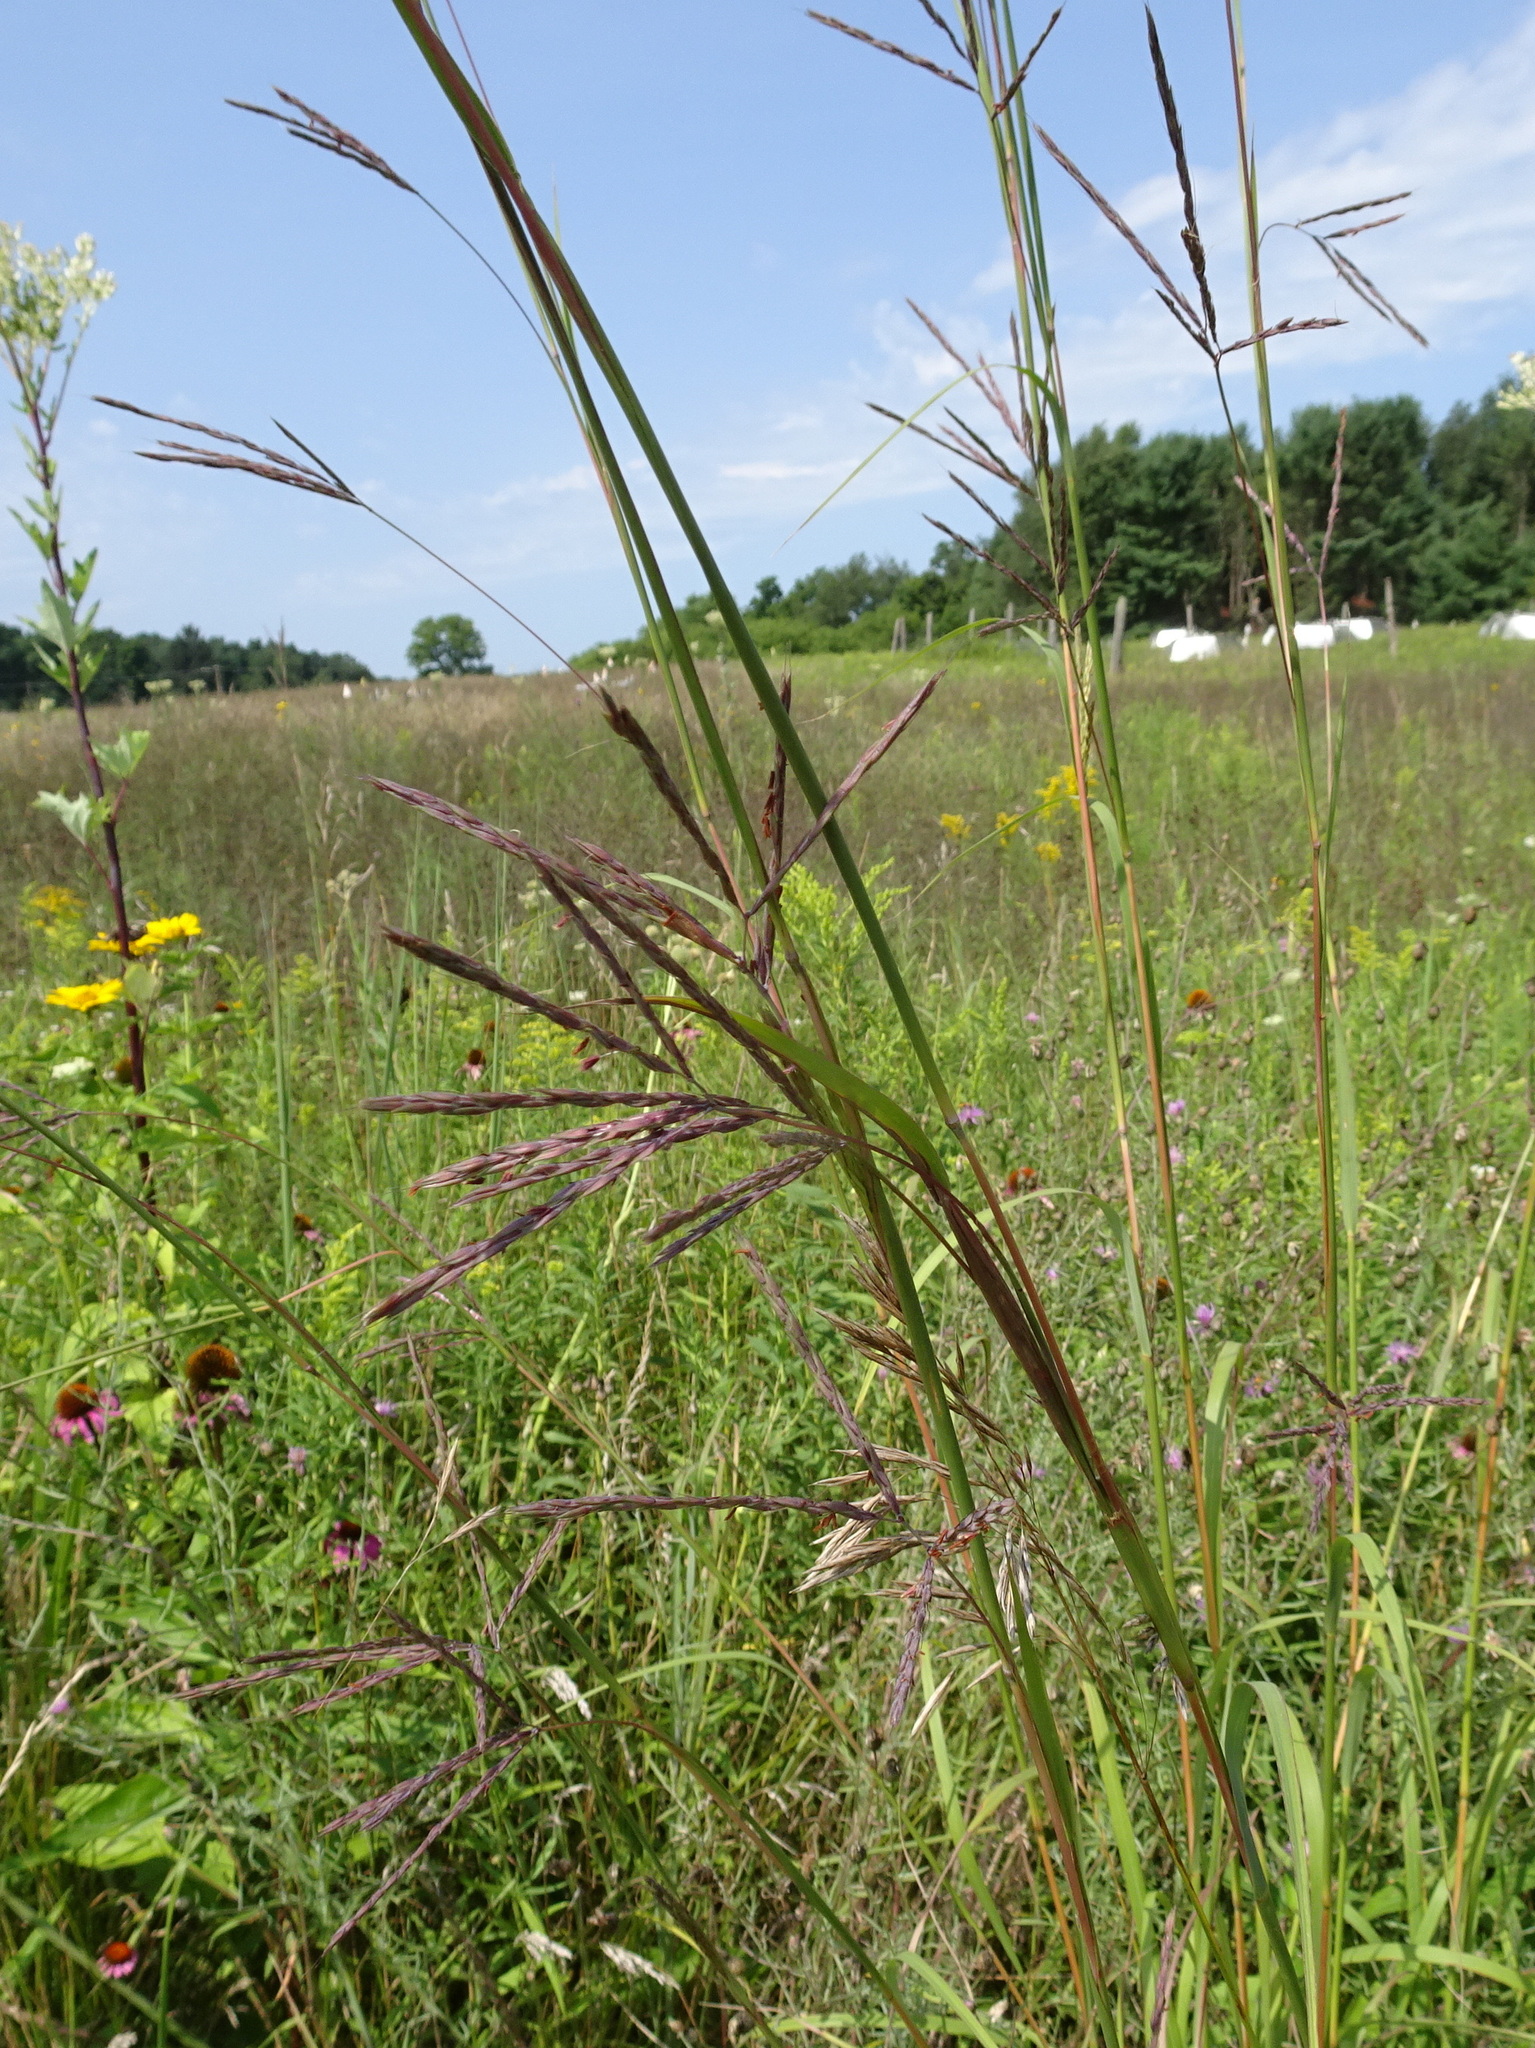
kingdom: Plantae
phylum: Tracheophyta
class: Liliopsida
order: Poales
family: Poaceae
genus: Andropogon
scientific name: Andropogon gerardi
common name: Big bluestem
